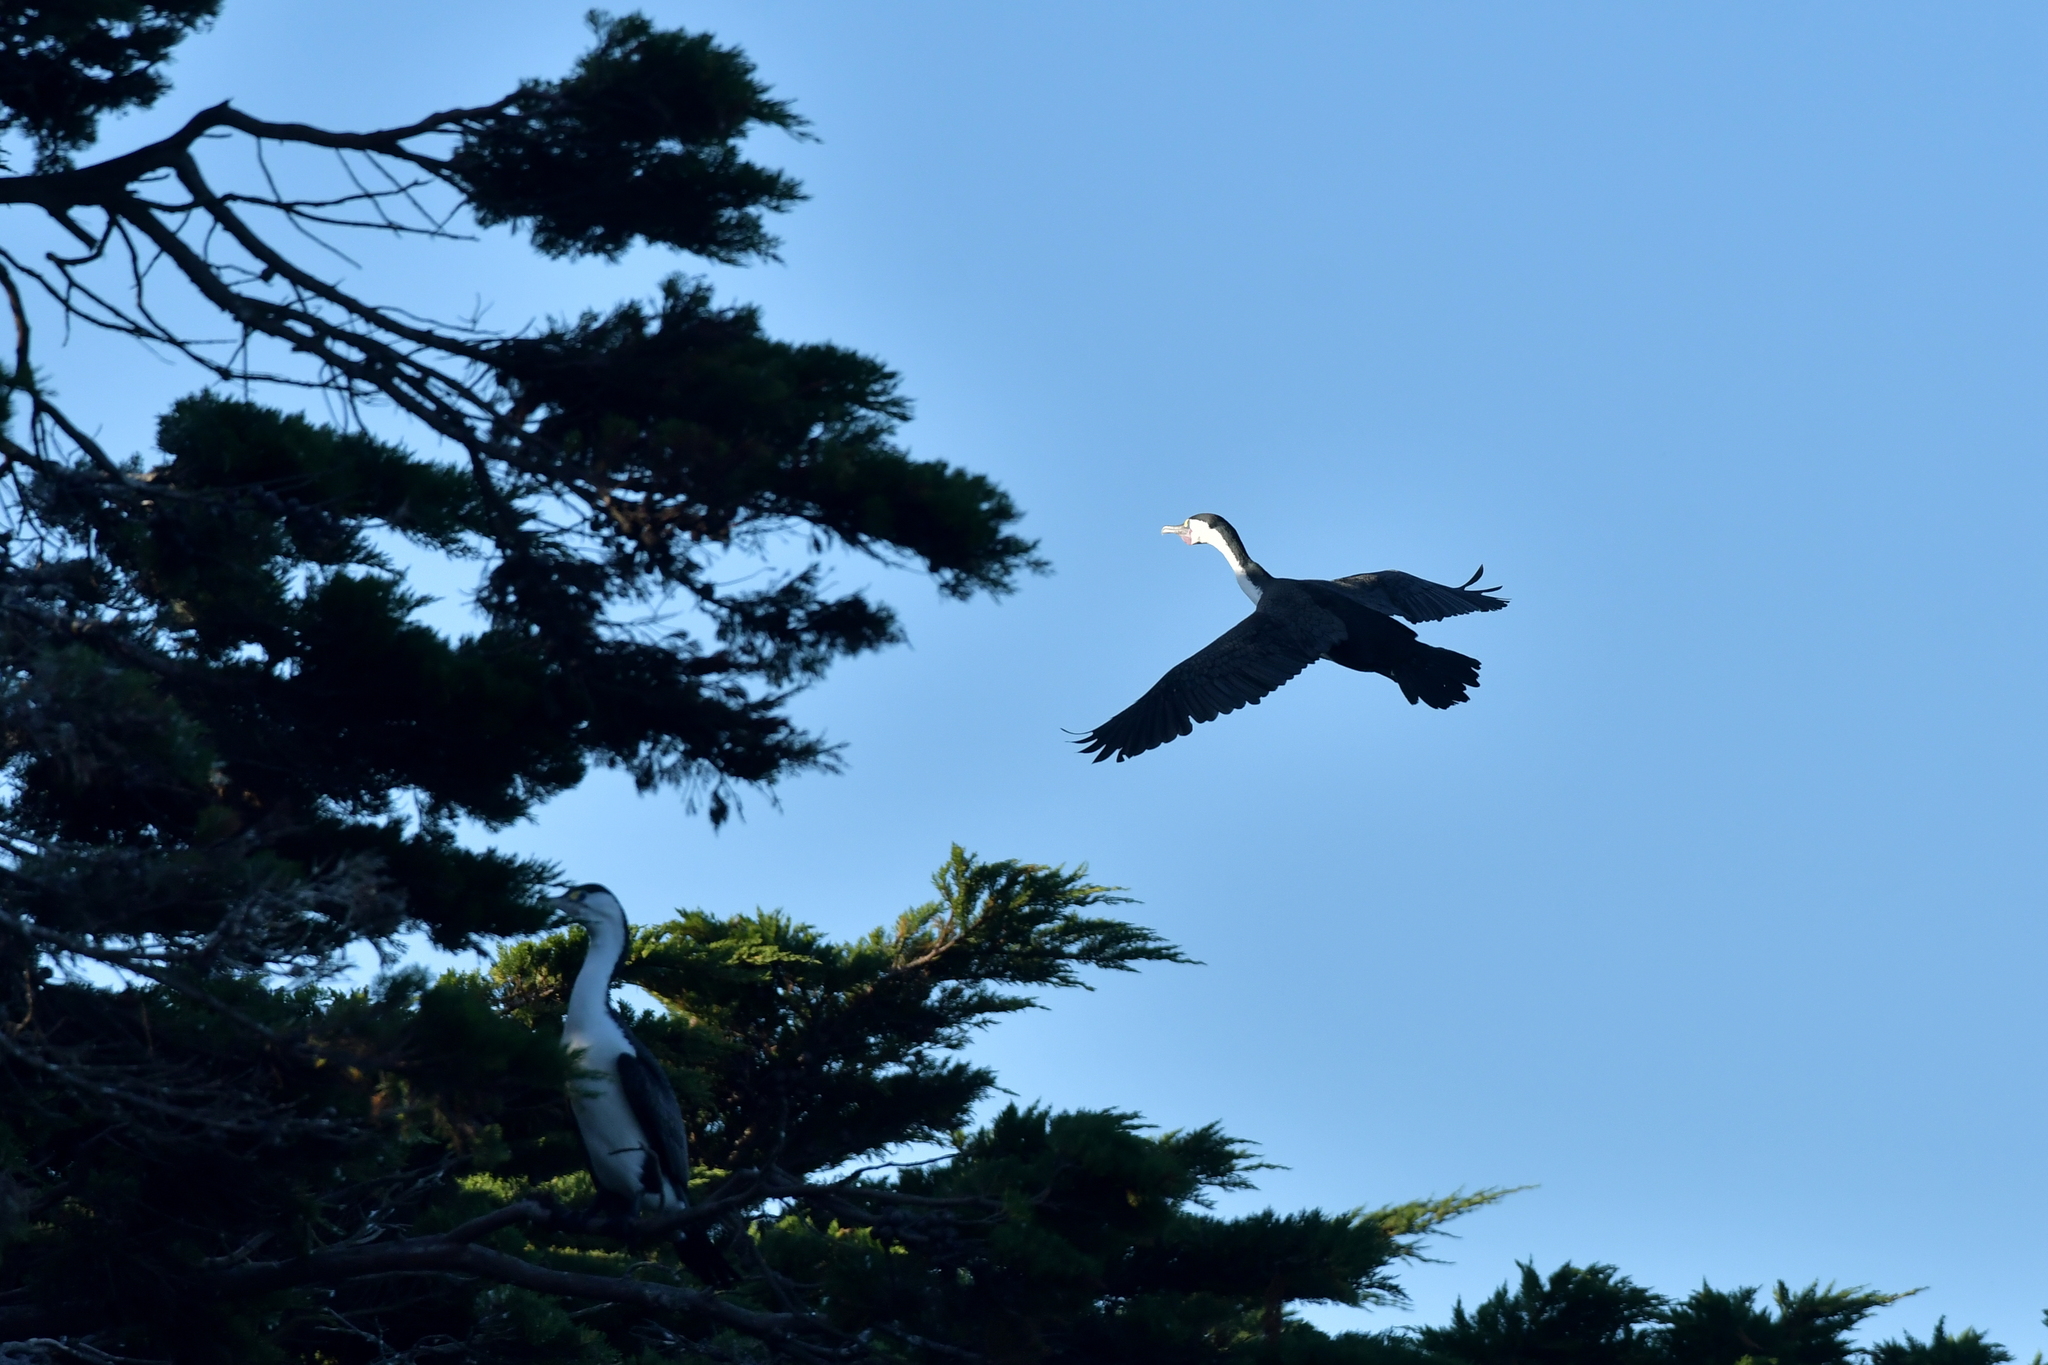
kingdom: Animalia
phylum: Chordata
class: Aves
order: Suliformes
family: Phalacrocoracidae
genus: Phalacrocorax
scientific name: Phalacrocorax varius
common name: Pied cormorant
